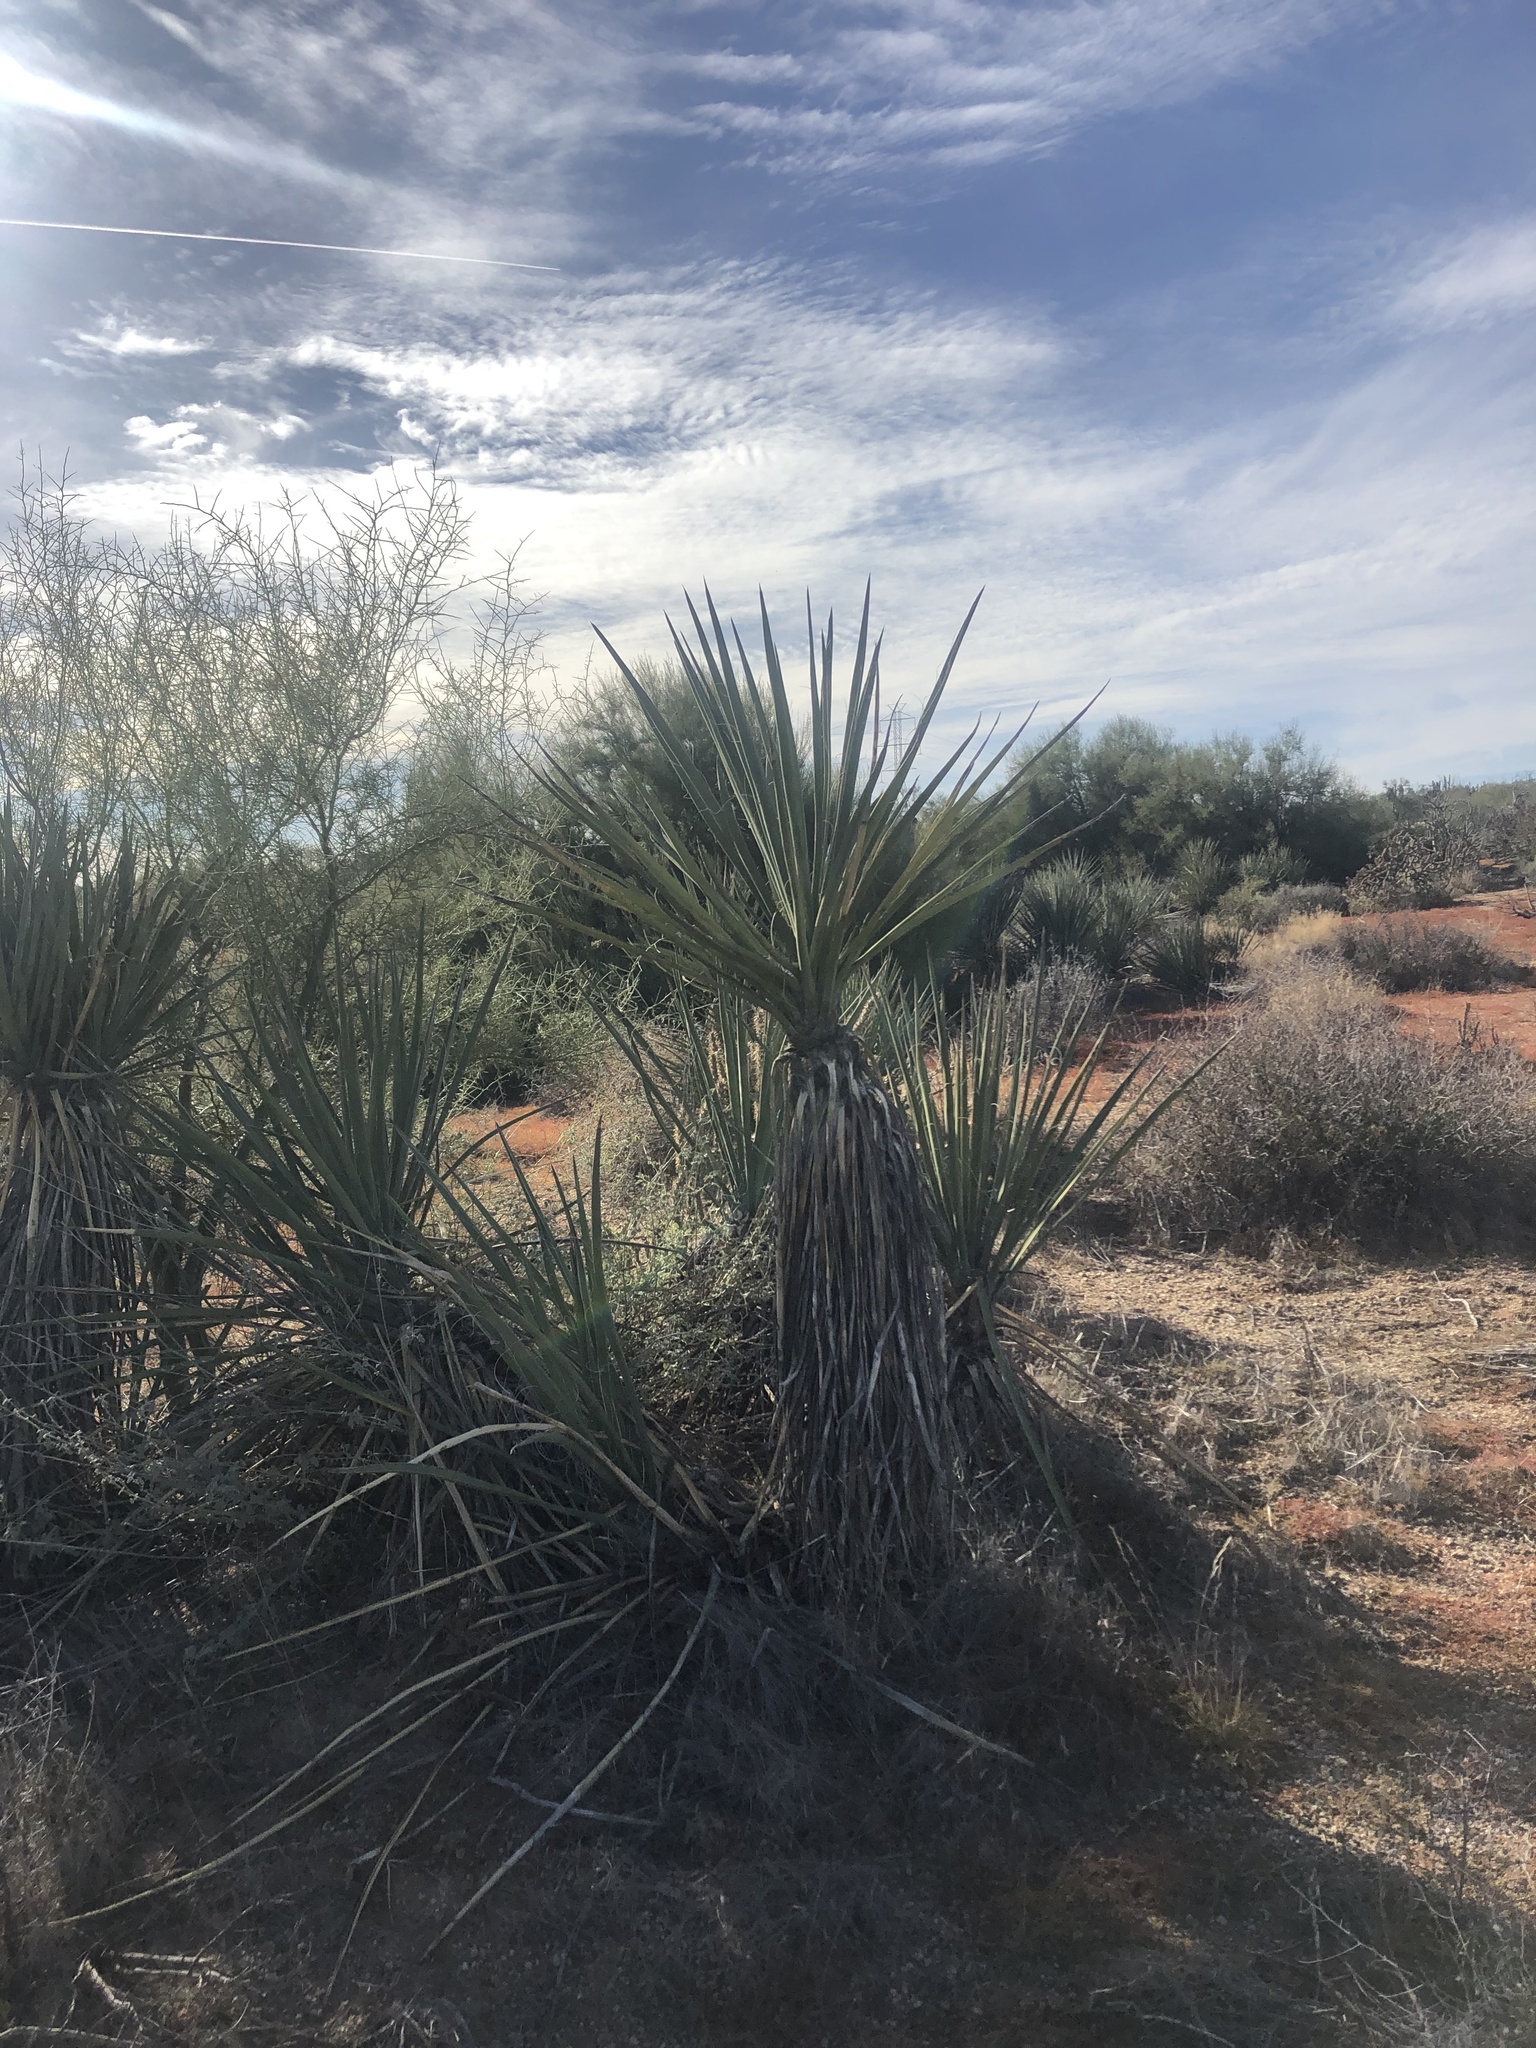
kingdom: Plantae
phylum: Tracheophyta
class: Liliopsida
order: Asparagales
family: Asparagaceae
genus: Yucca
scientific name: Yucca baccata
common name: Banana yucca
